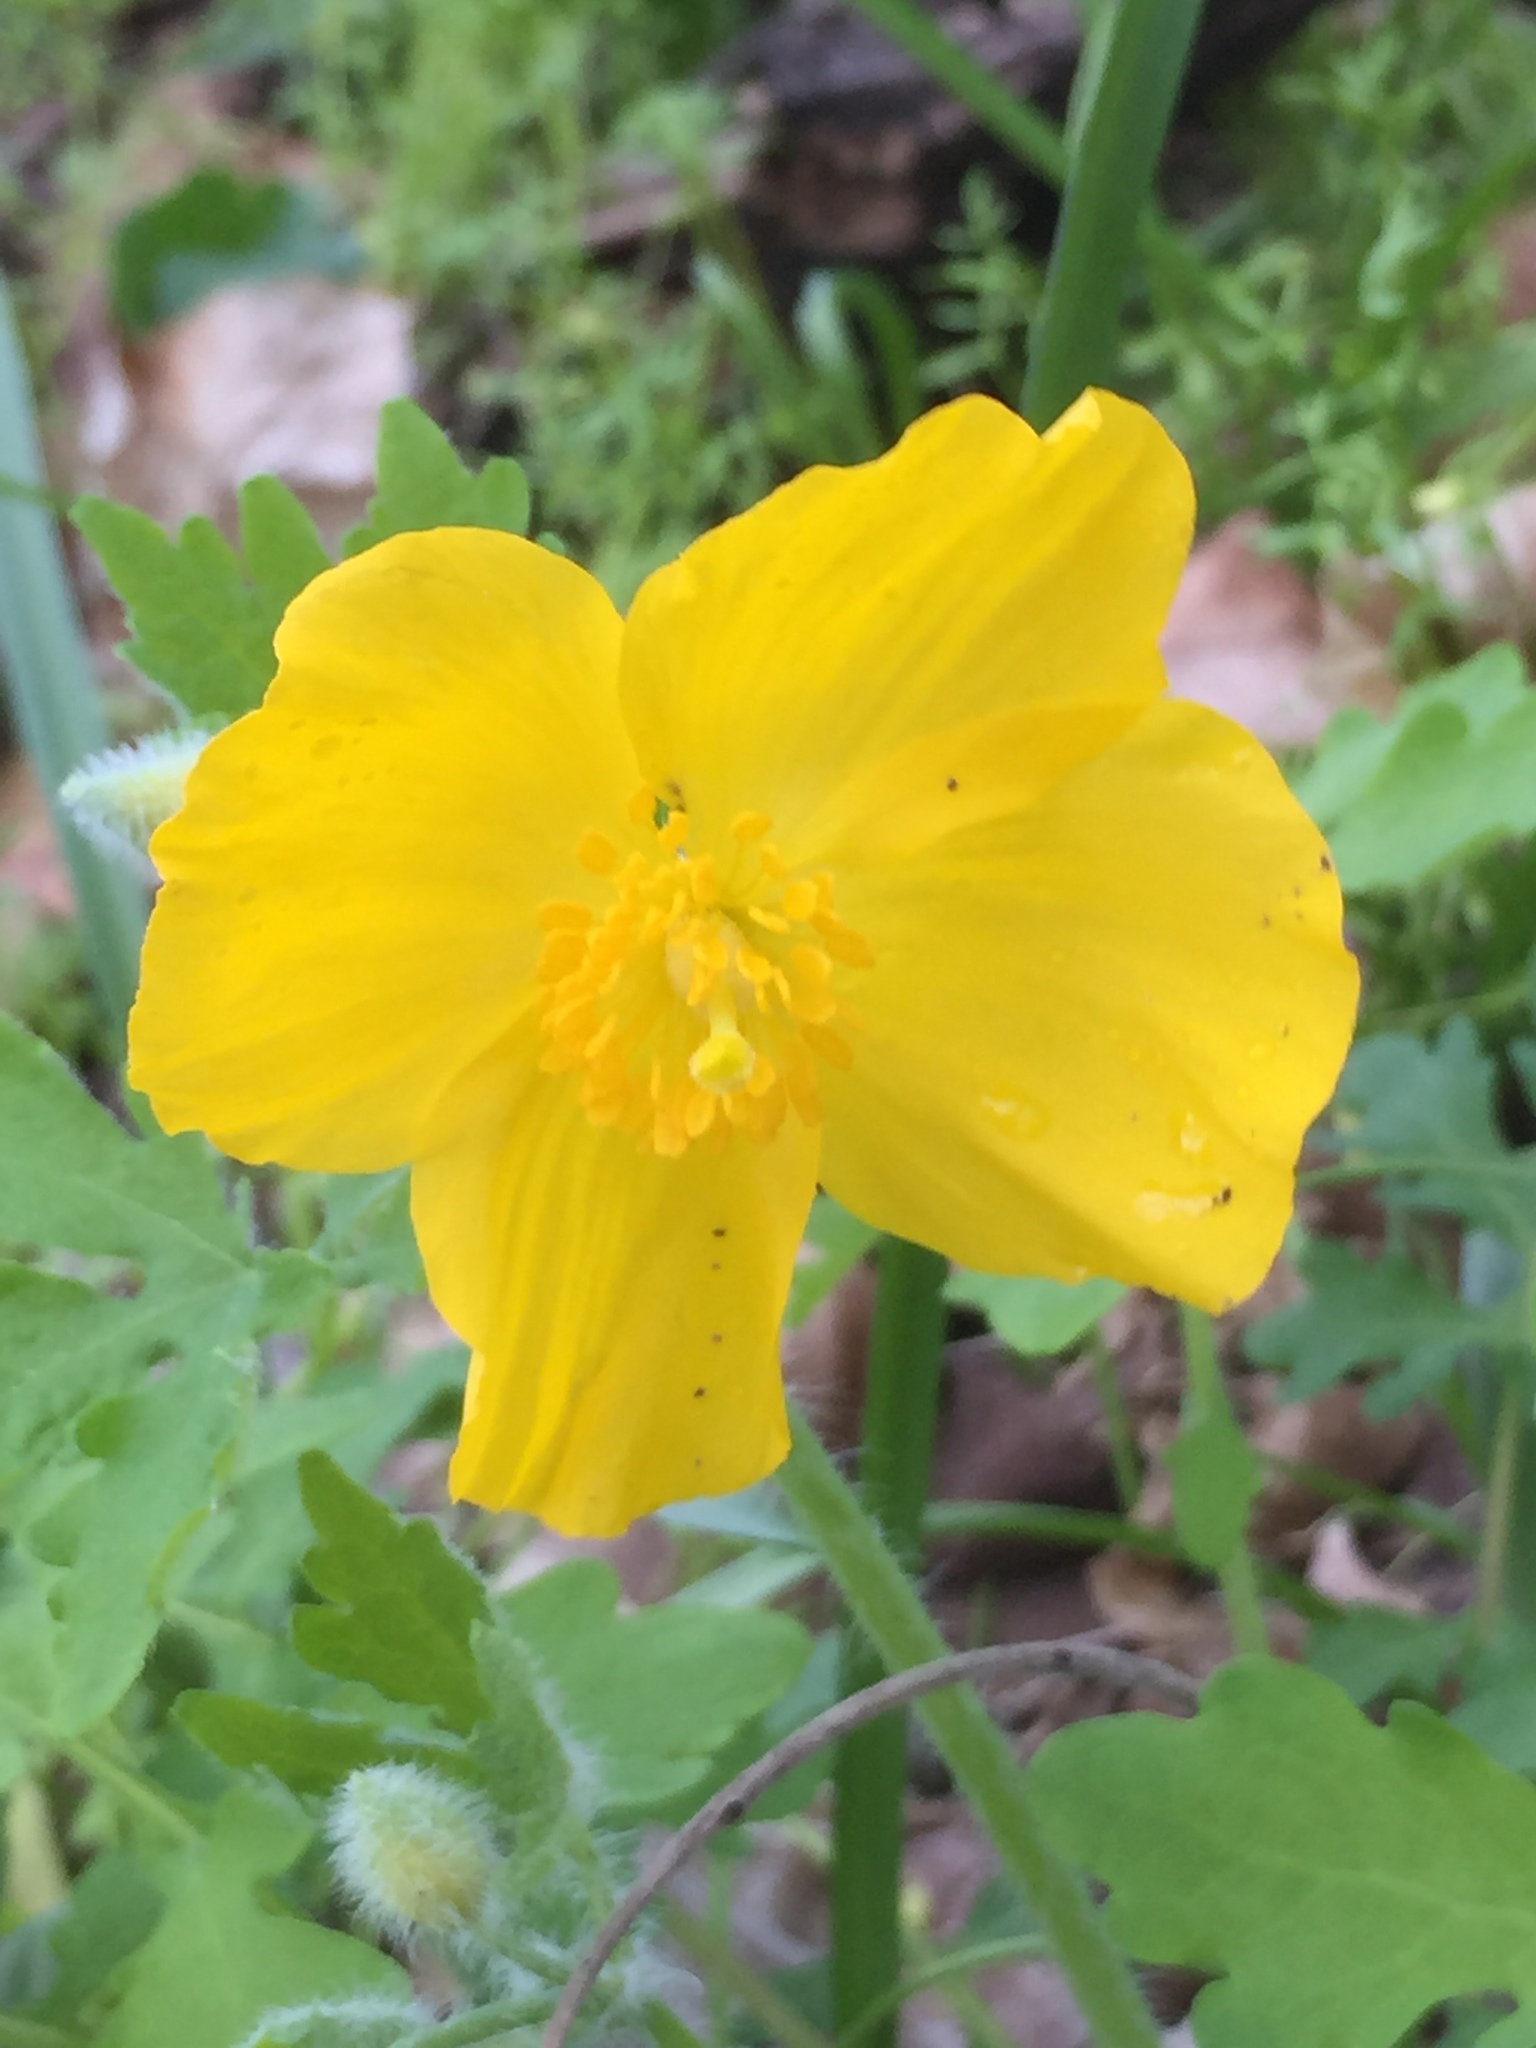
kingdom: Plantae
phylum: Tracheophyta
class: Magnoliopsida
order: Ranunculales
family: Papaveraceae
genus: Stylophorum
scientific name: Stylophorum diphyllum
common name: Celandine poppy
